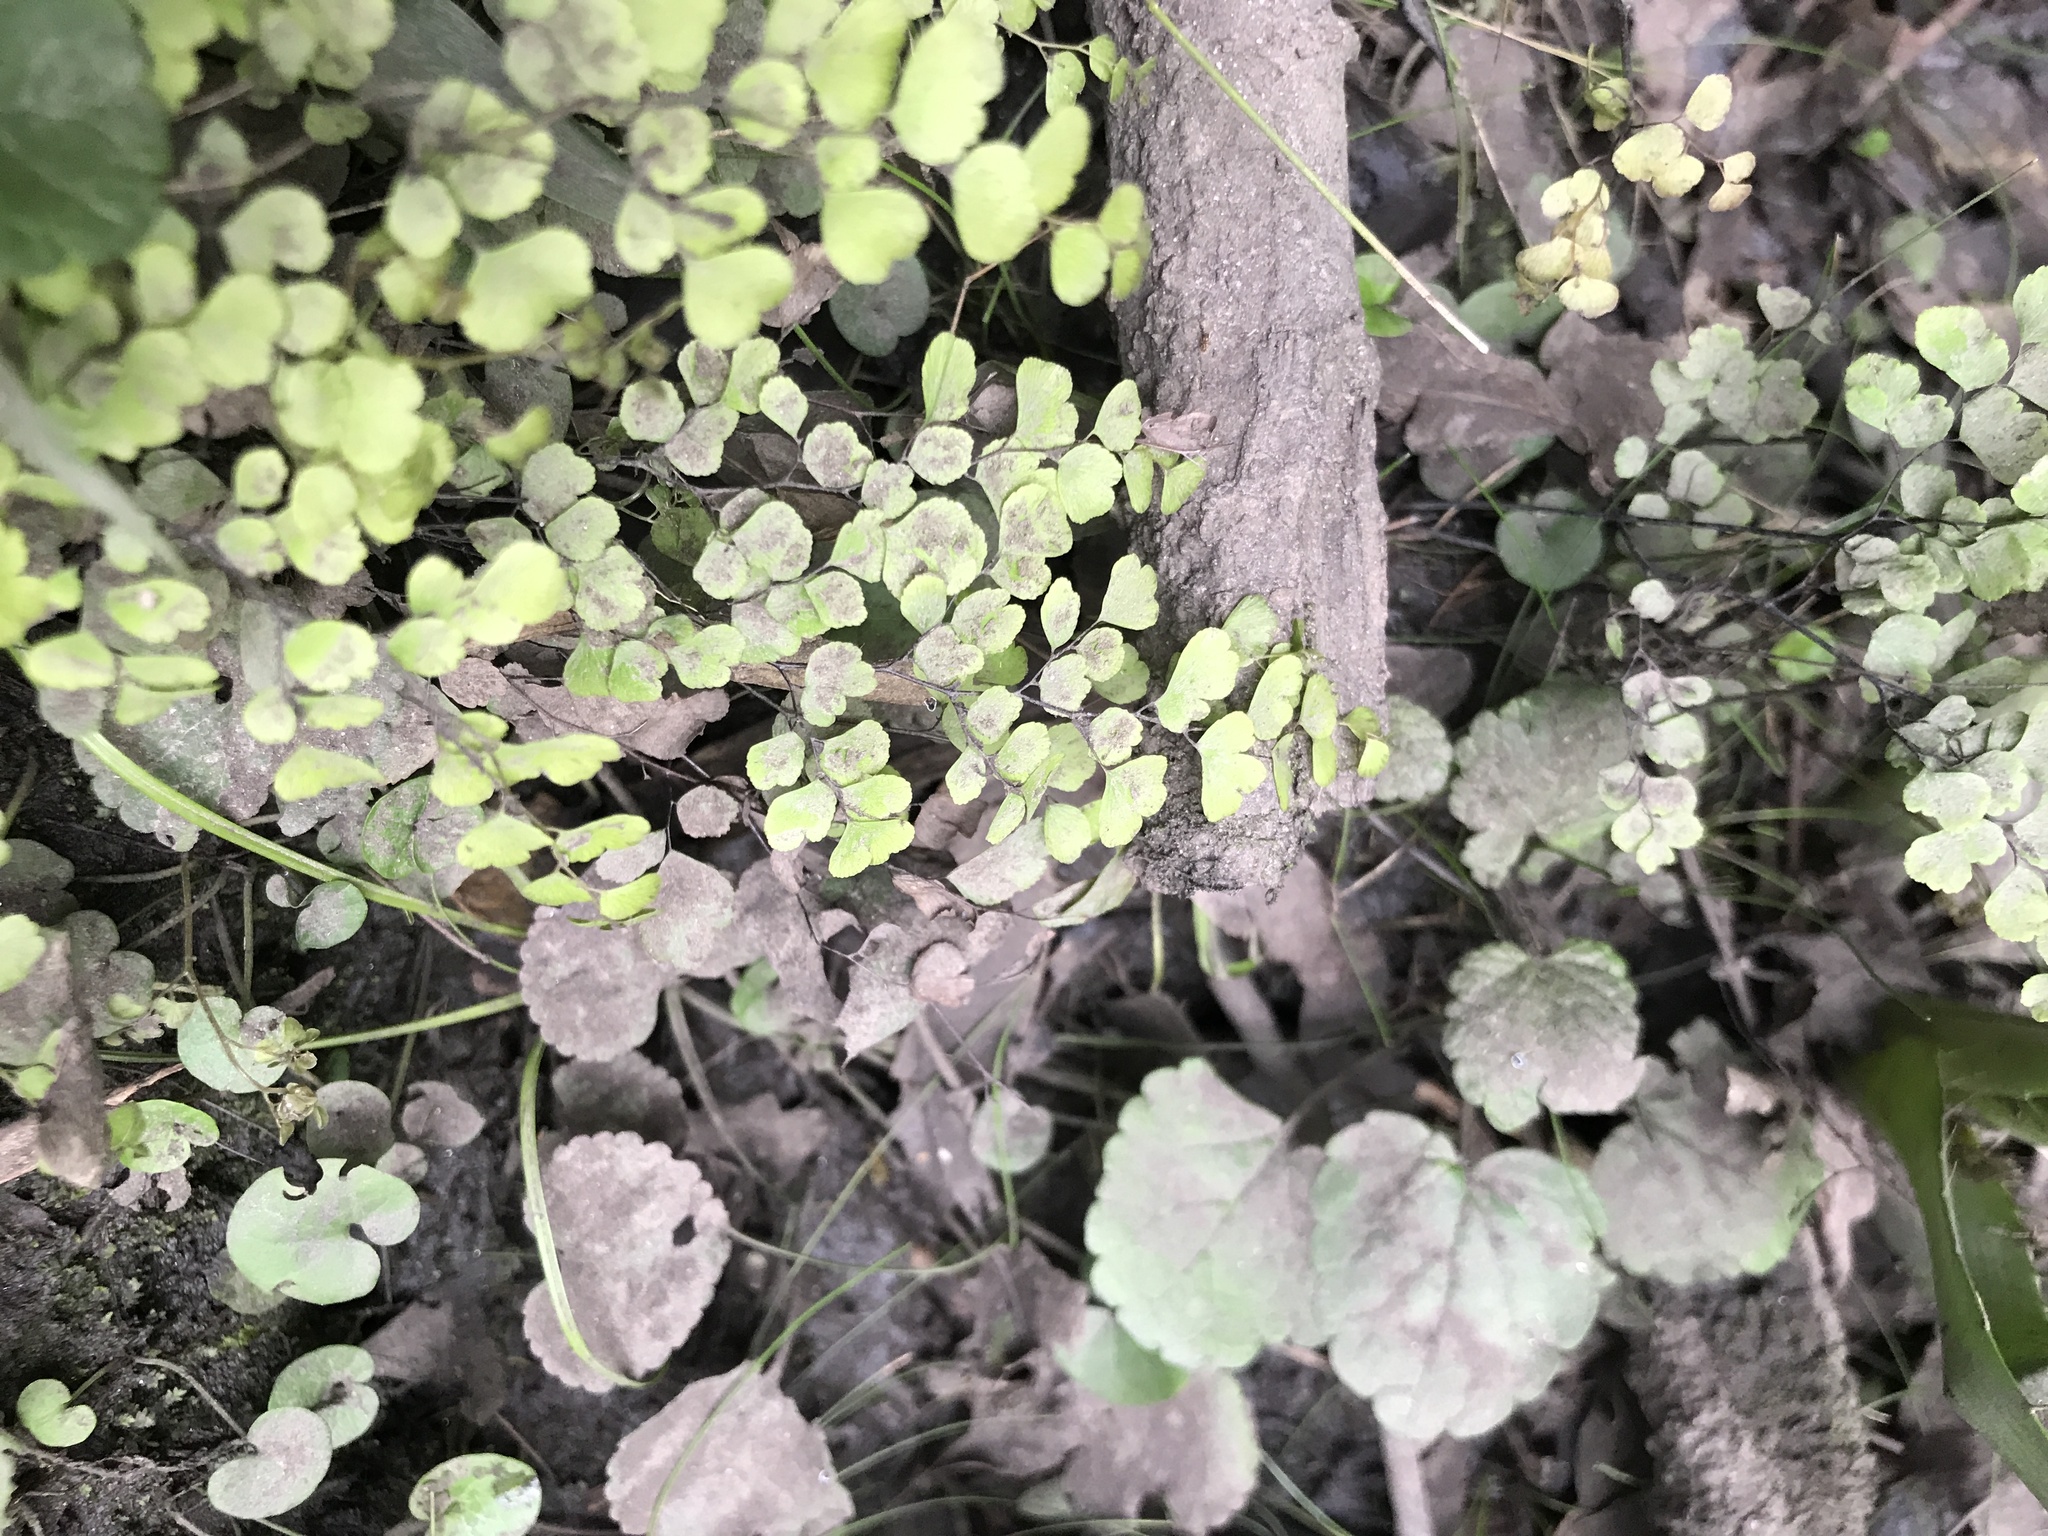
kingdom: Plantae
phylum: Tracheophyta
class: Polypodiopsida
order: Polypodiales
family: Pteridaceae
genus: Adiantum
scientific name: Adiantum raddianum
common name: Delta maidenhair fern
